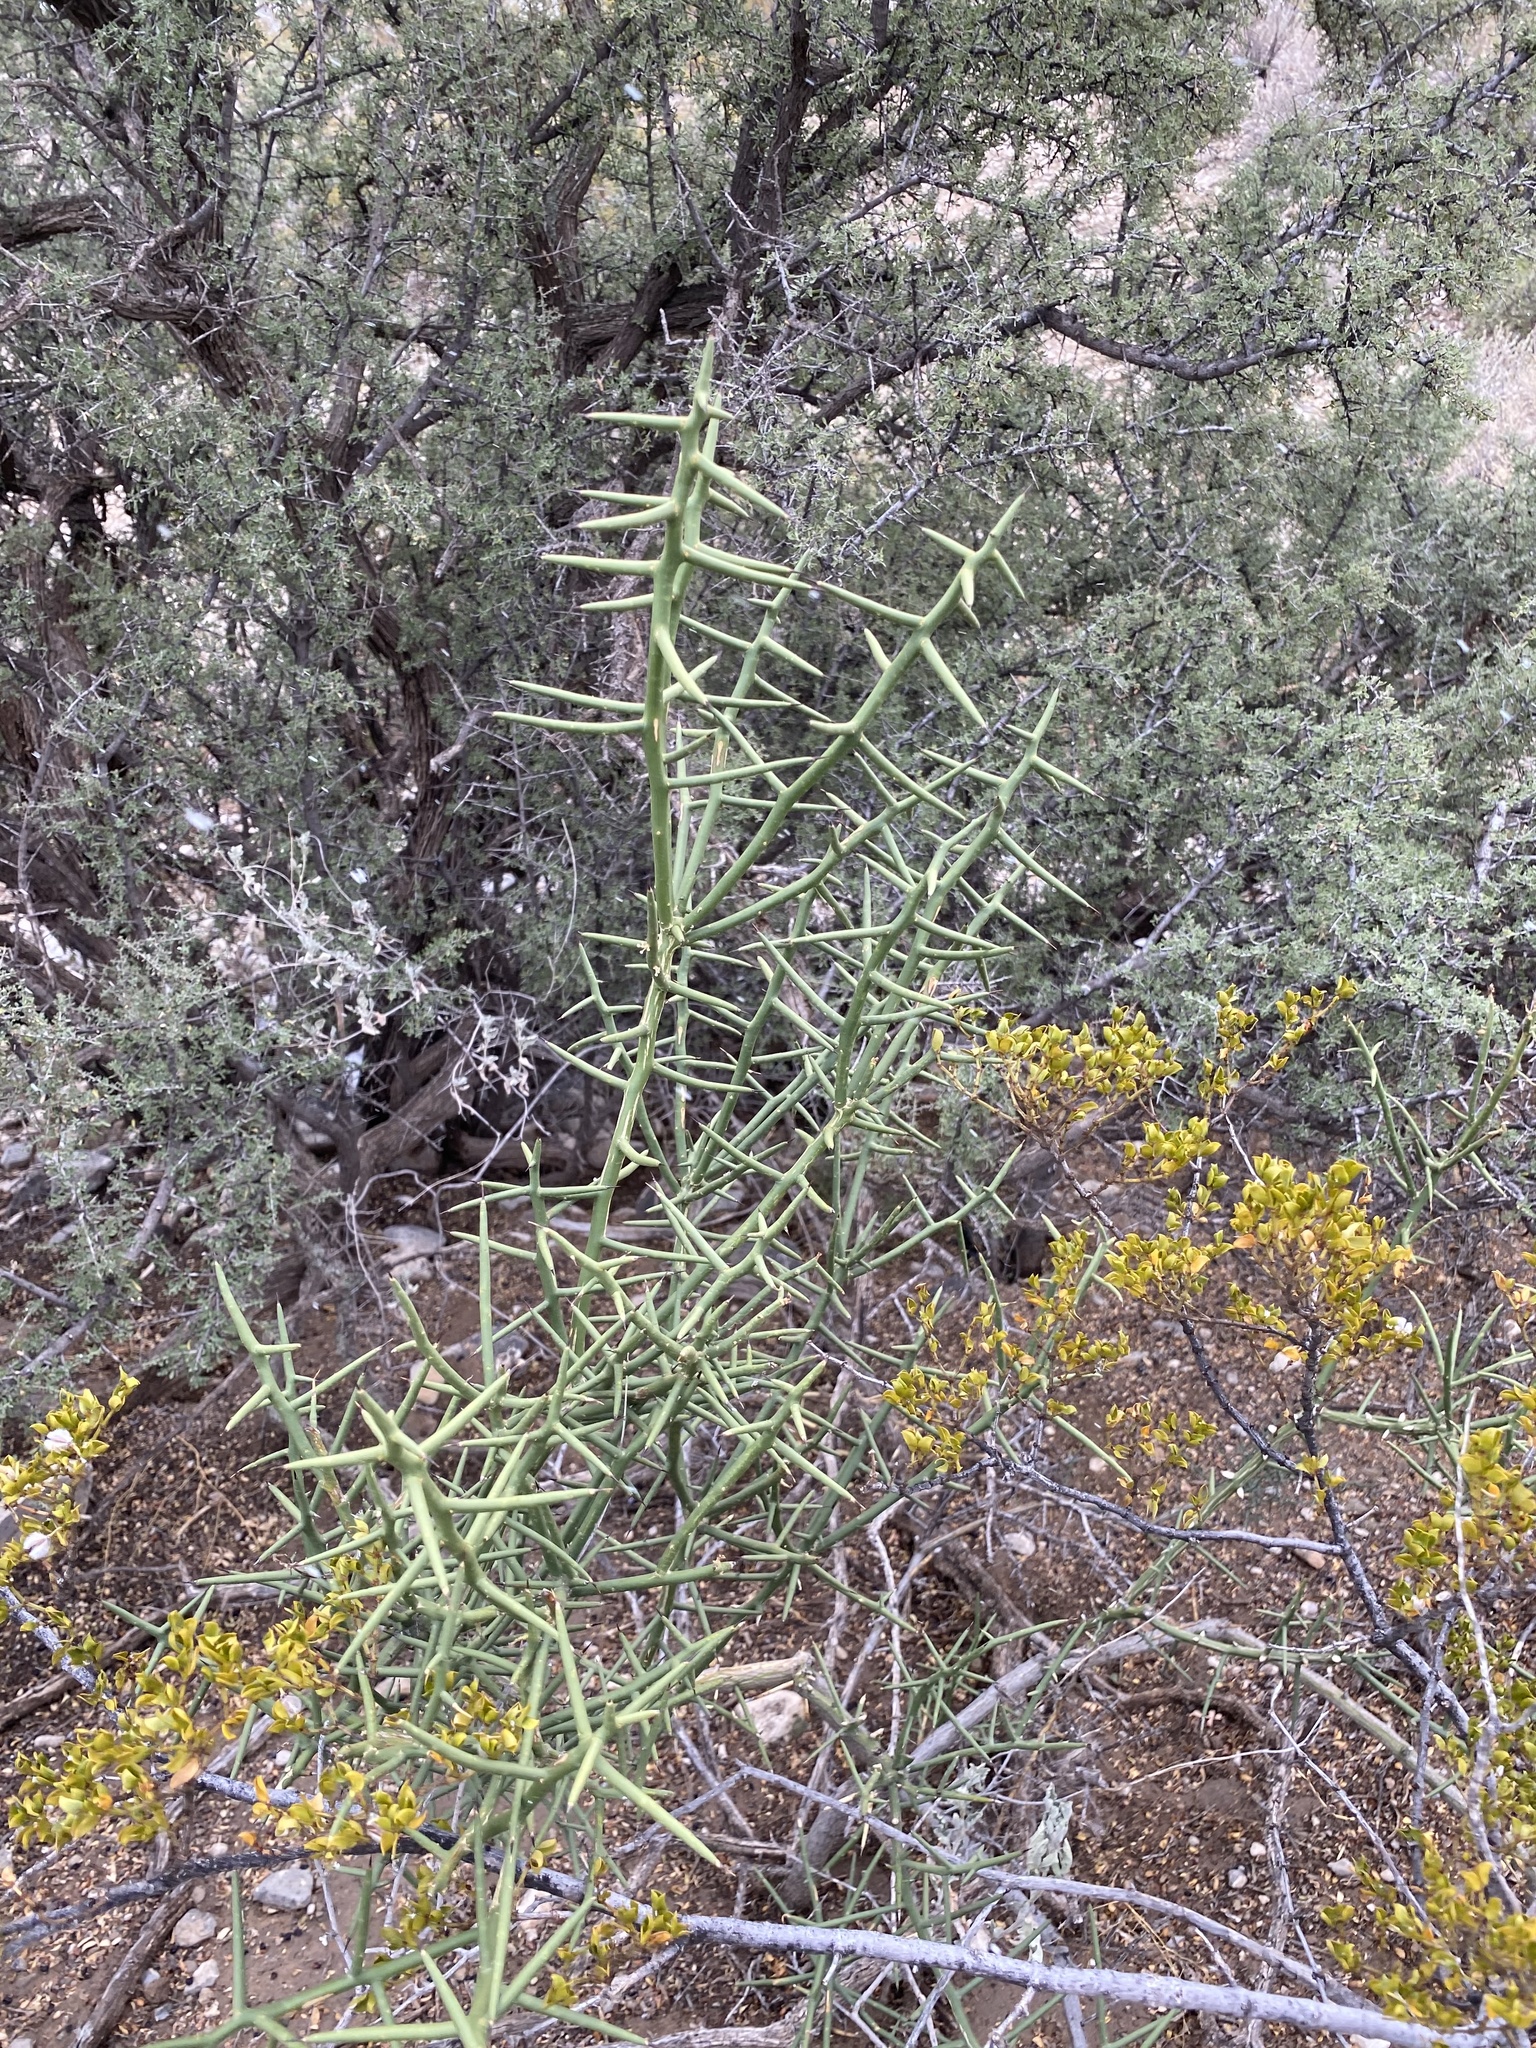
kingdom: Plantae
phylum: Tracheophyta
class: Magnoliopsida
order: Brassicales
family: Koeberliniaceae
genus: Koeberlinia
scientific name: Koeberlinia spinosa
